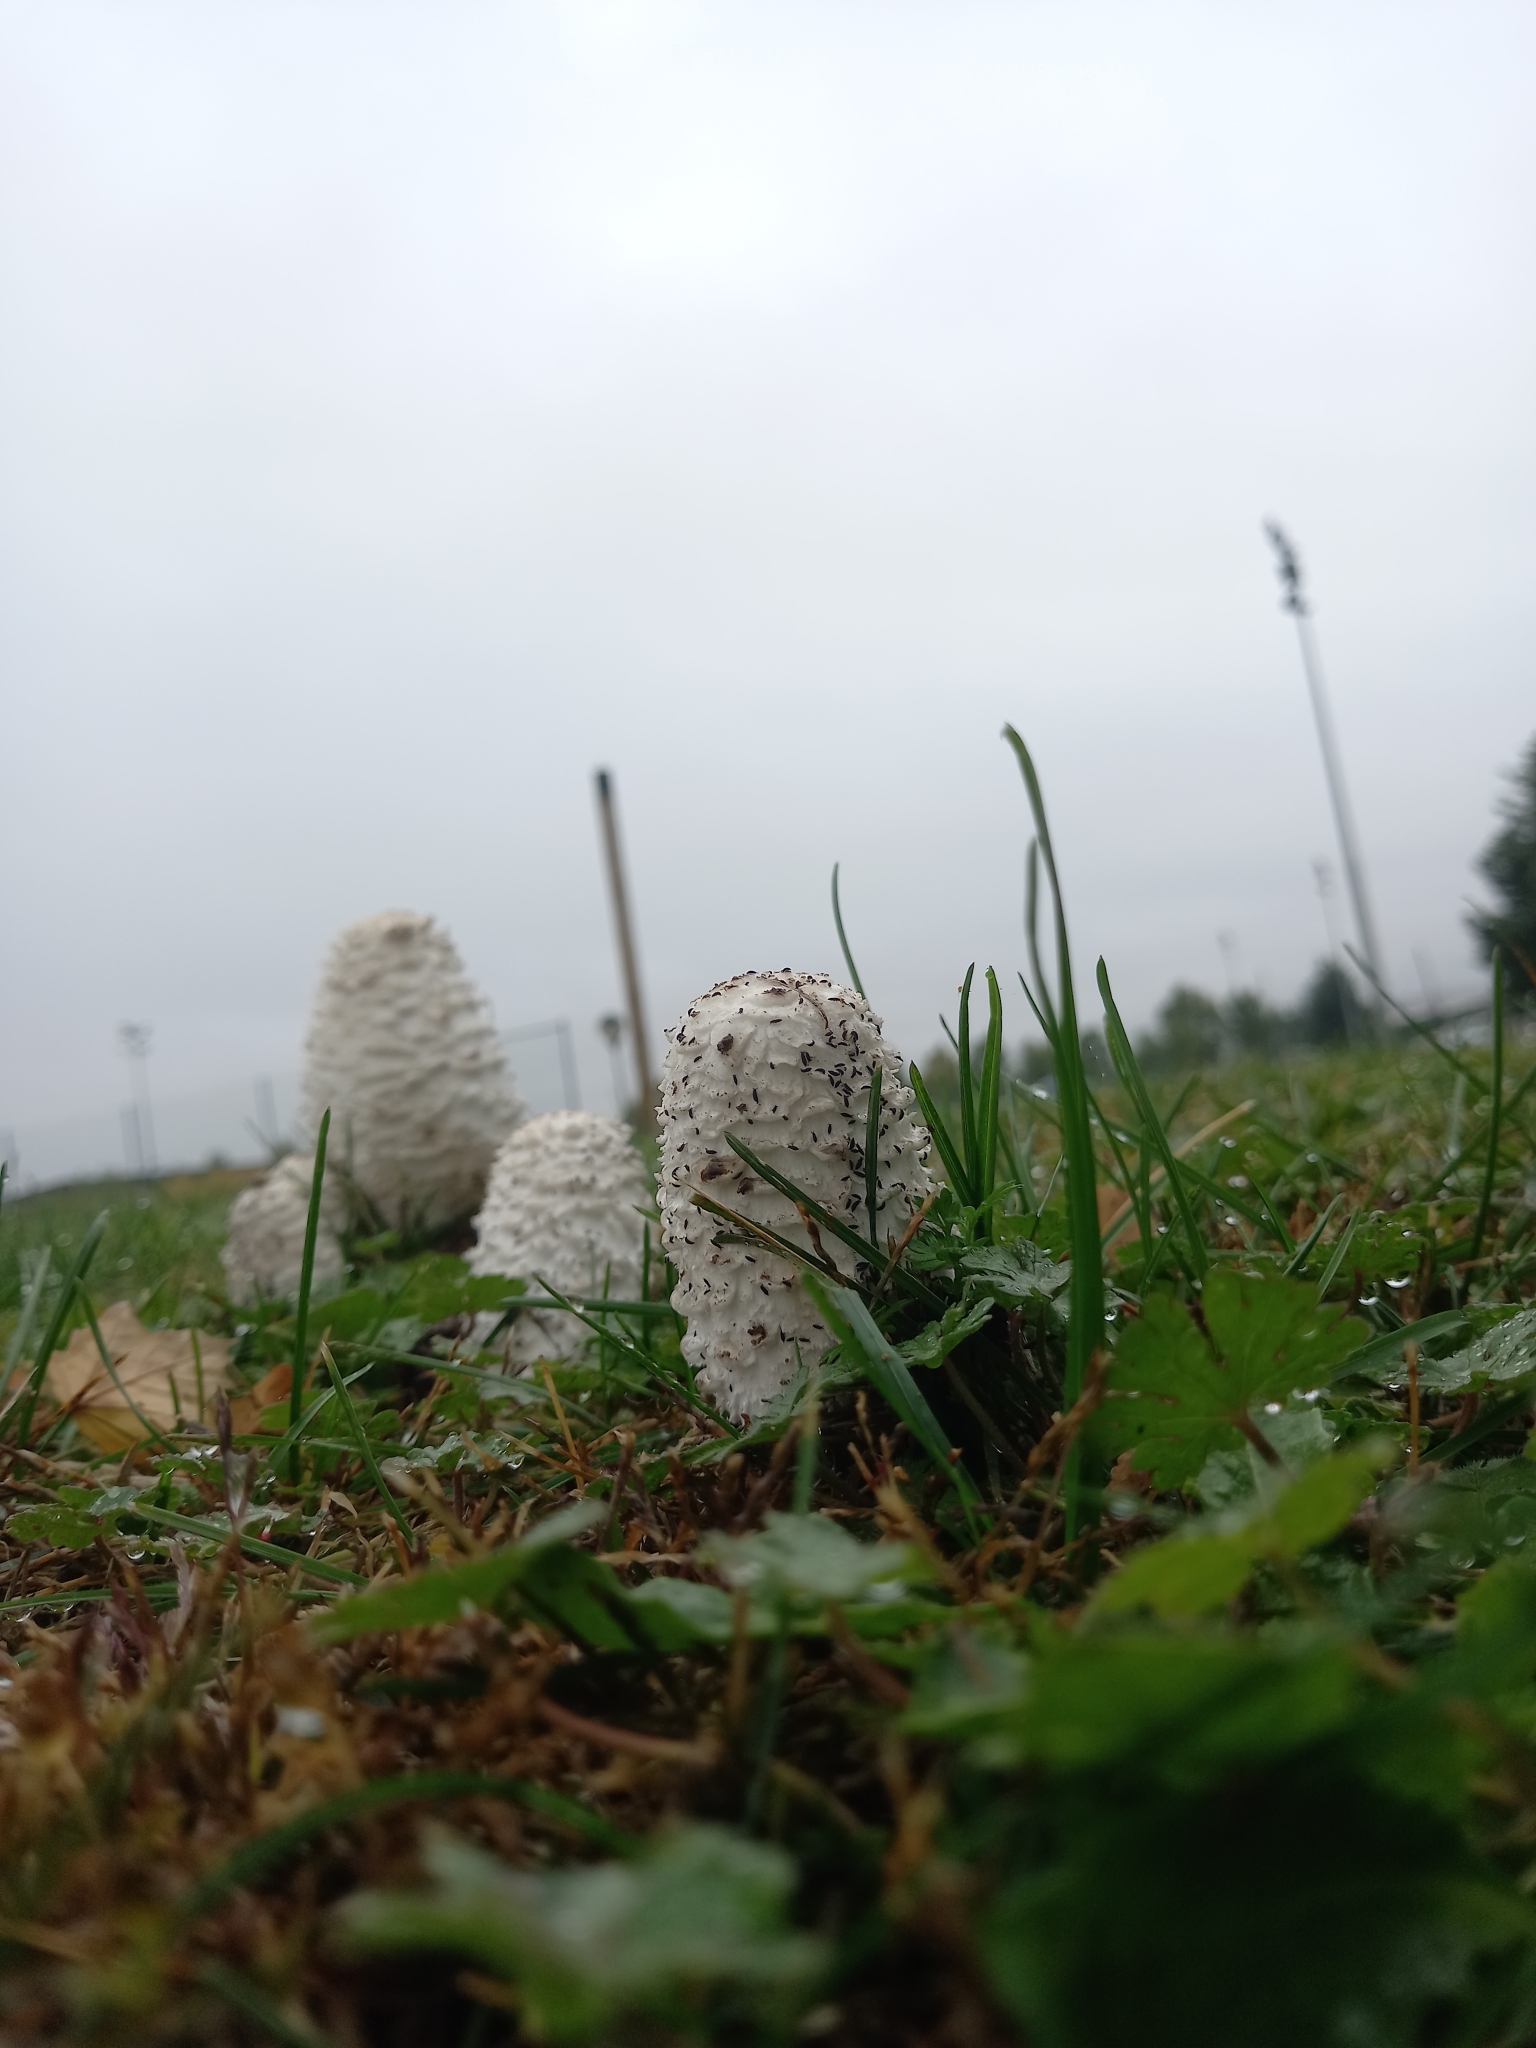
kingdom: Fungi
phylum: Basidiomycota
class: Agaricomycetes
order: Agaricales
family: Agaricaceae
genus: Coprinus
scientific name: Coprinus comatus
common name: Lawyer's wig
